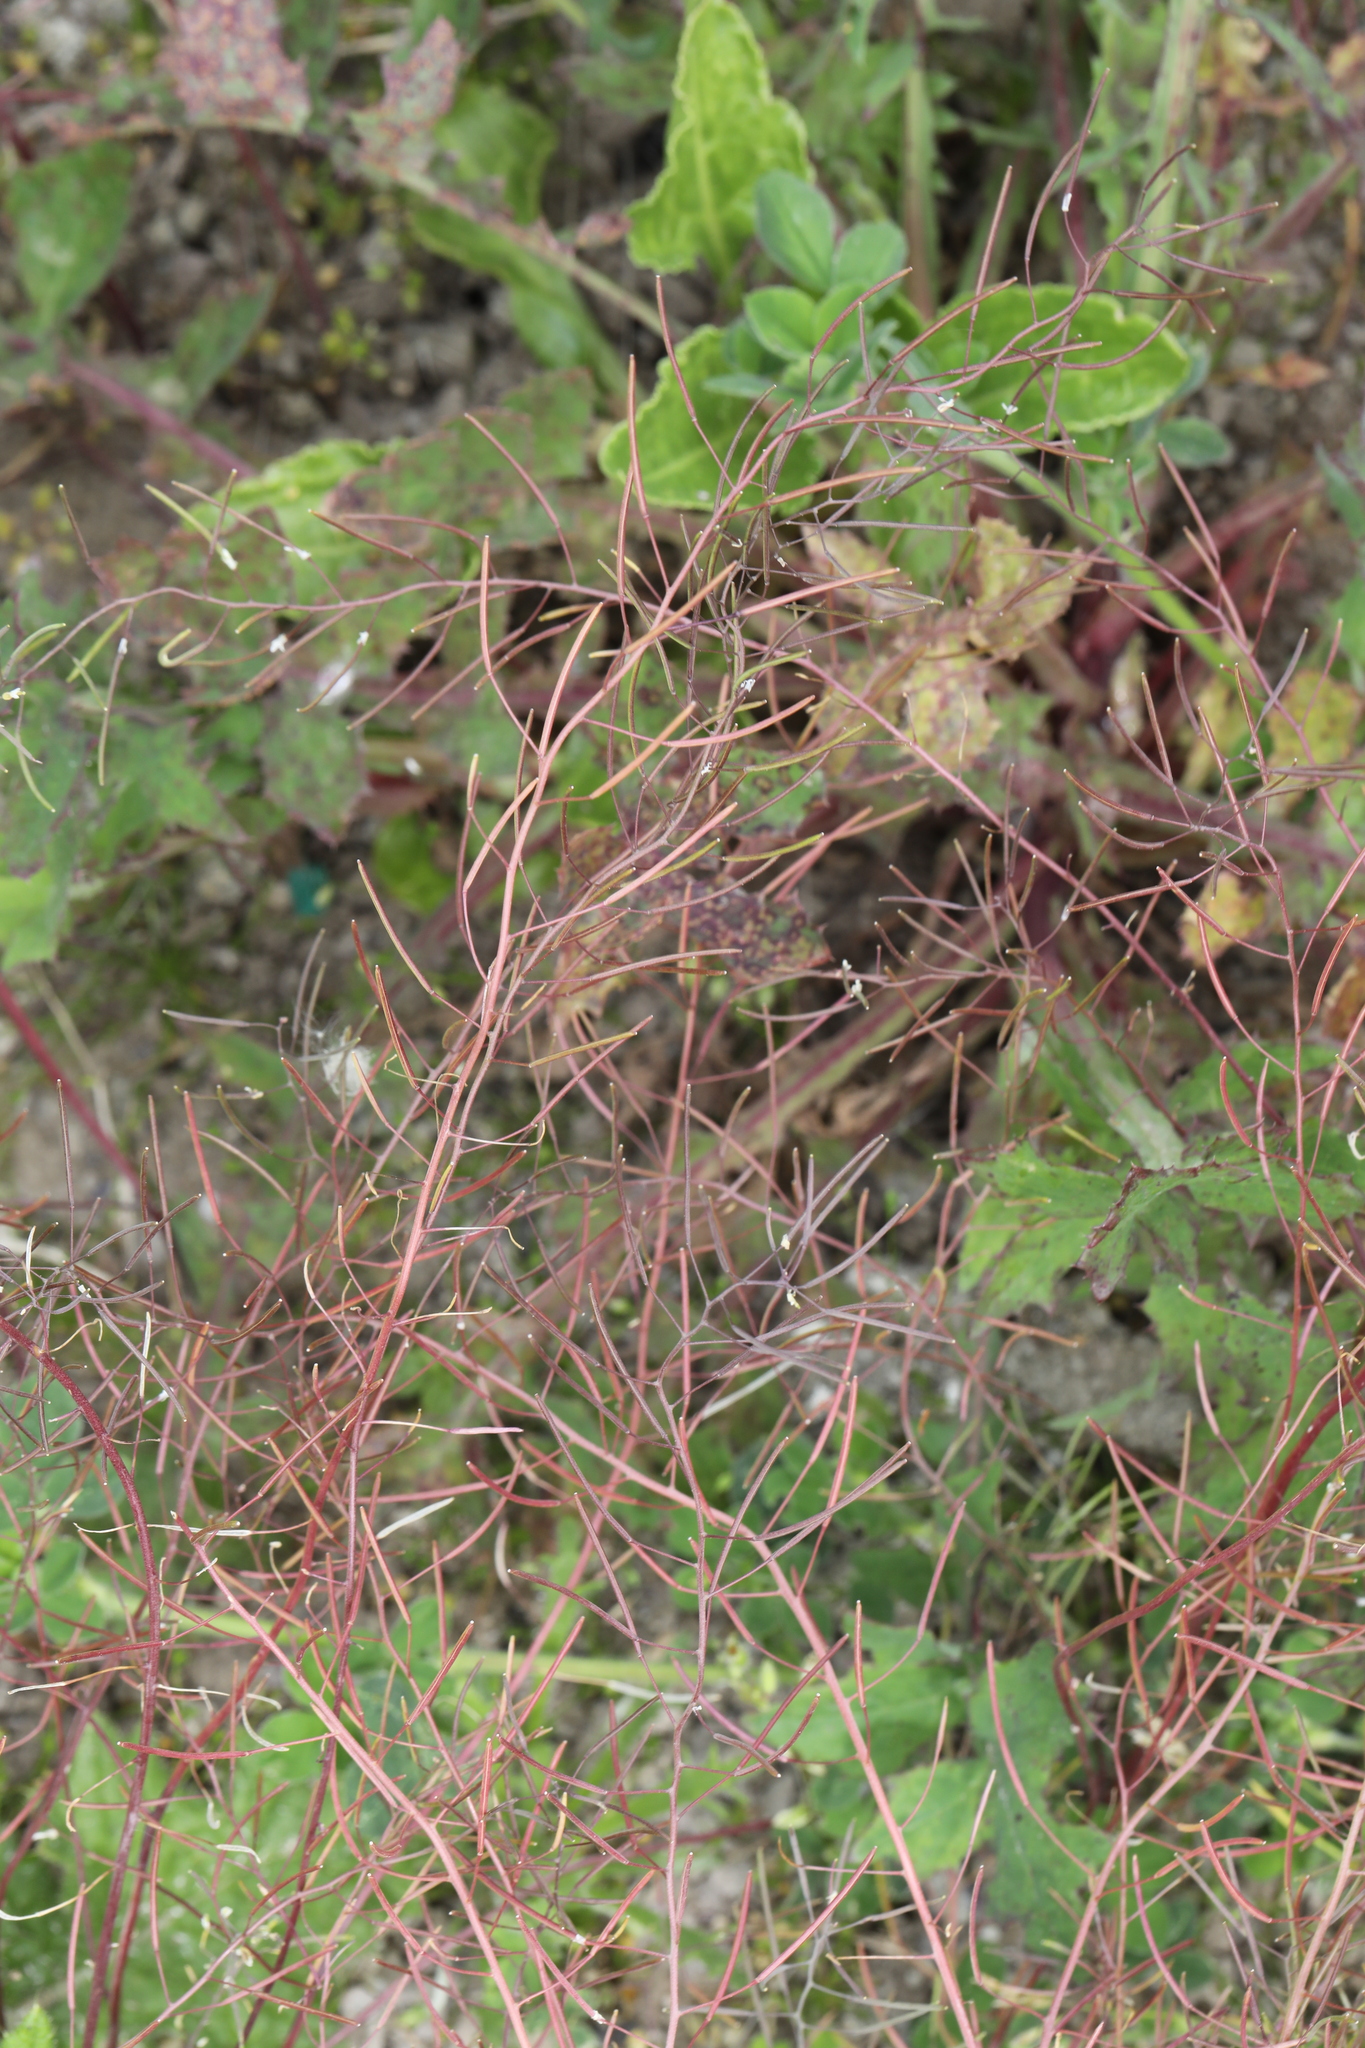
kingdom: Plantae
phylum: Tracheophyta
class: Magnoliopsida
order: Brassicales
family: Brassicaceae
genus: Arabidopsis
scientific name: Arabidopsis thaliana
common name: Thale cress
